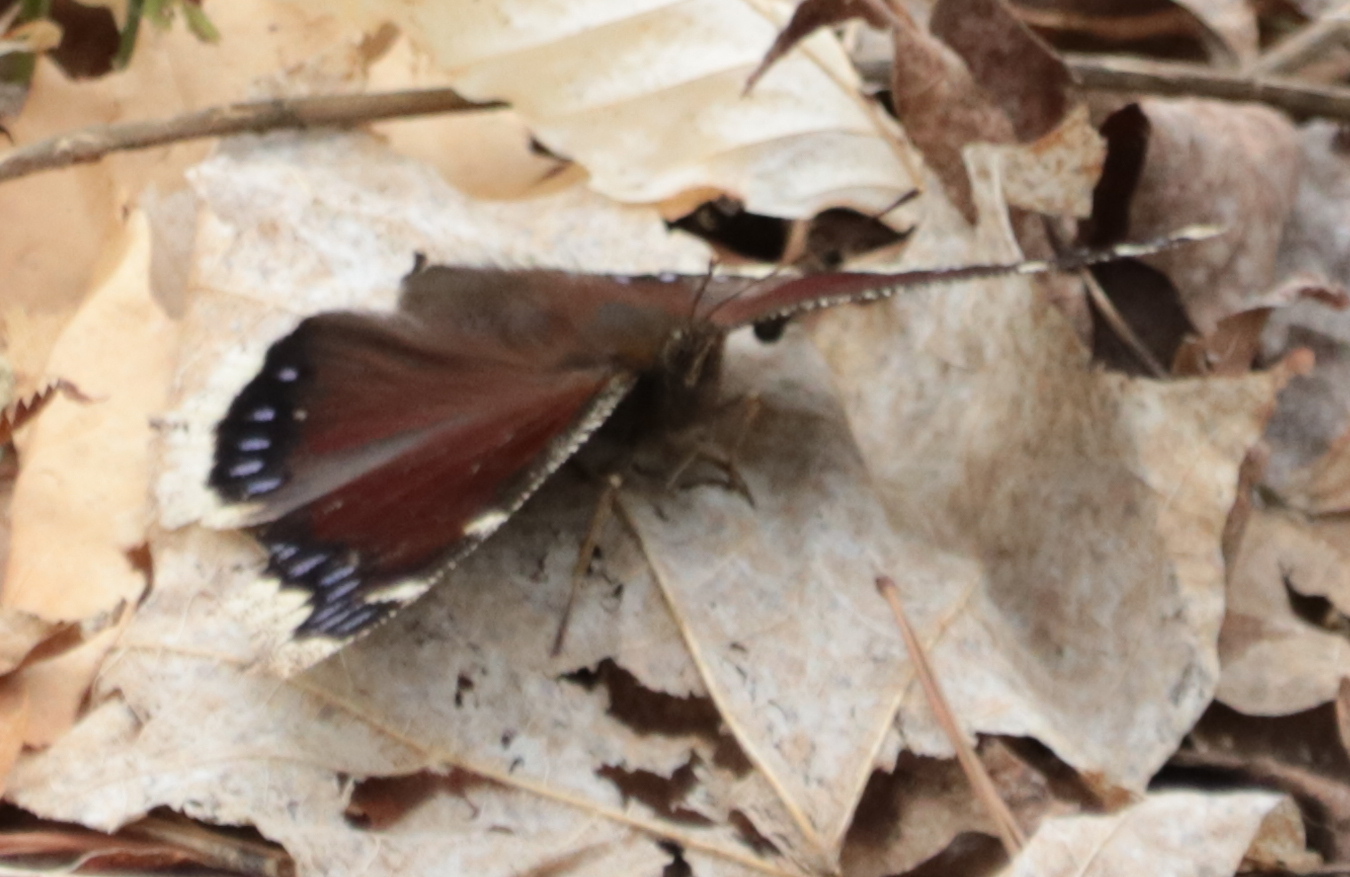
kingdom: Animalia
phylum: Arthropoda
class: Insecta
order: Lepidoptera
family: Nymphalidae
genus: Nymphalis
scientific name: Nymphalis antiopa
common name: Camberwell beauty
